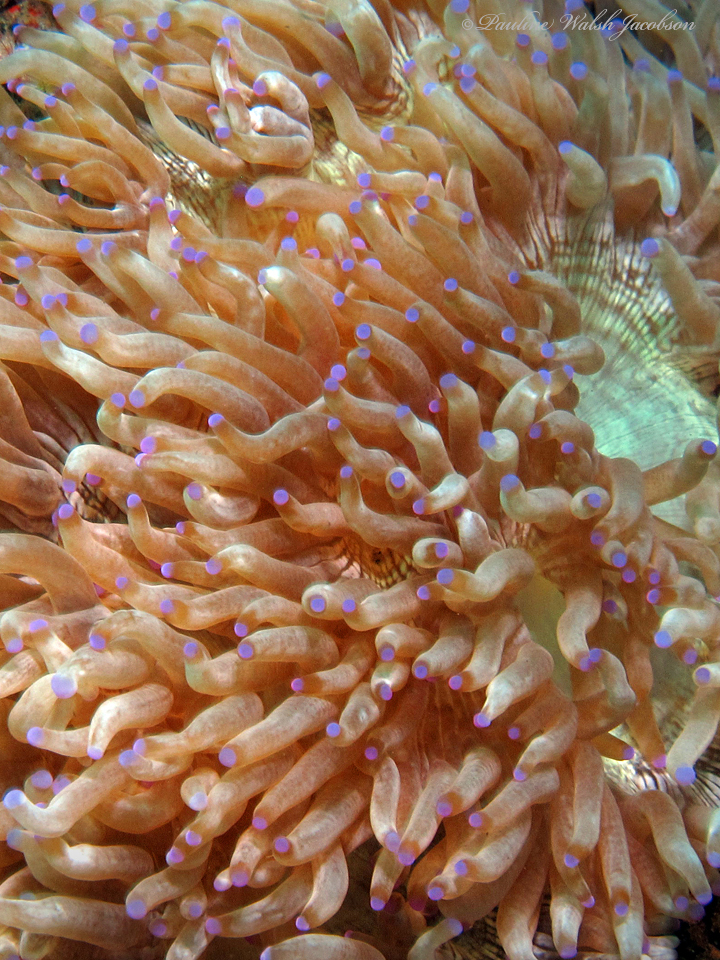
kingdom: Animalia
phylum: Cnidaria
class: Anthozoa
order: Scleractinia
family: Merulinidae
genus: Catalaphyllia
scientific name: Catalaphyllia jardinei
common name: Wonder coral
